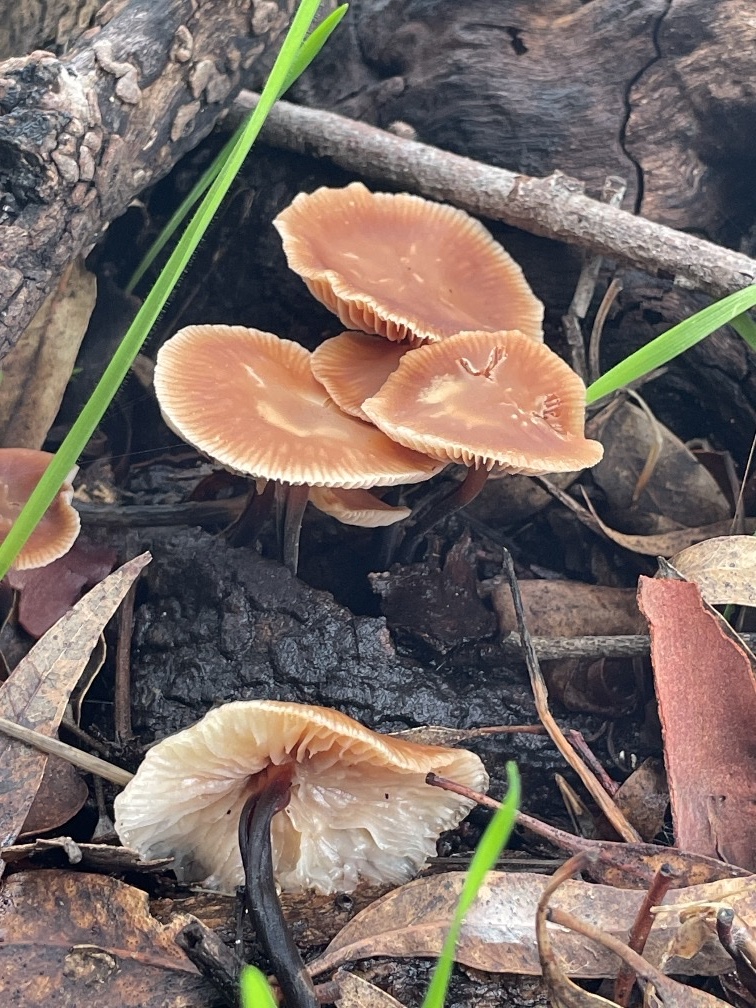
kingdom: Fungi
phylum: Basidiomycota
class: Agaricomycetes
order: Agaricales
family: Omphalotaceae
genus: Gymnopus
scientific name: Gymnopus brassicolens
